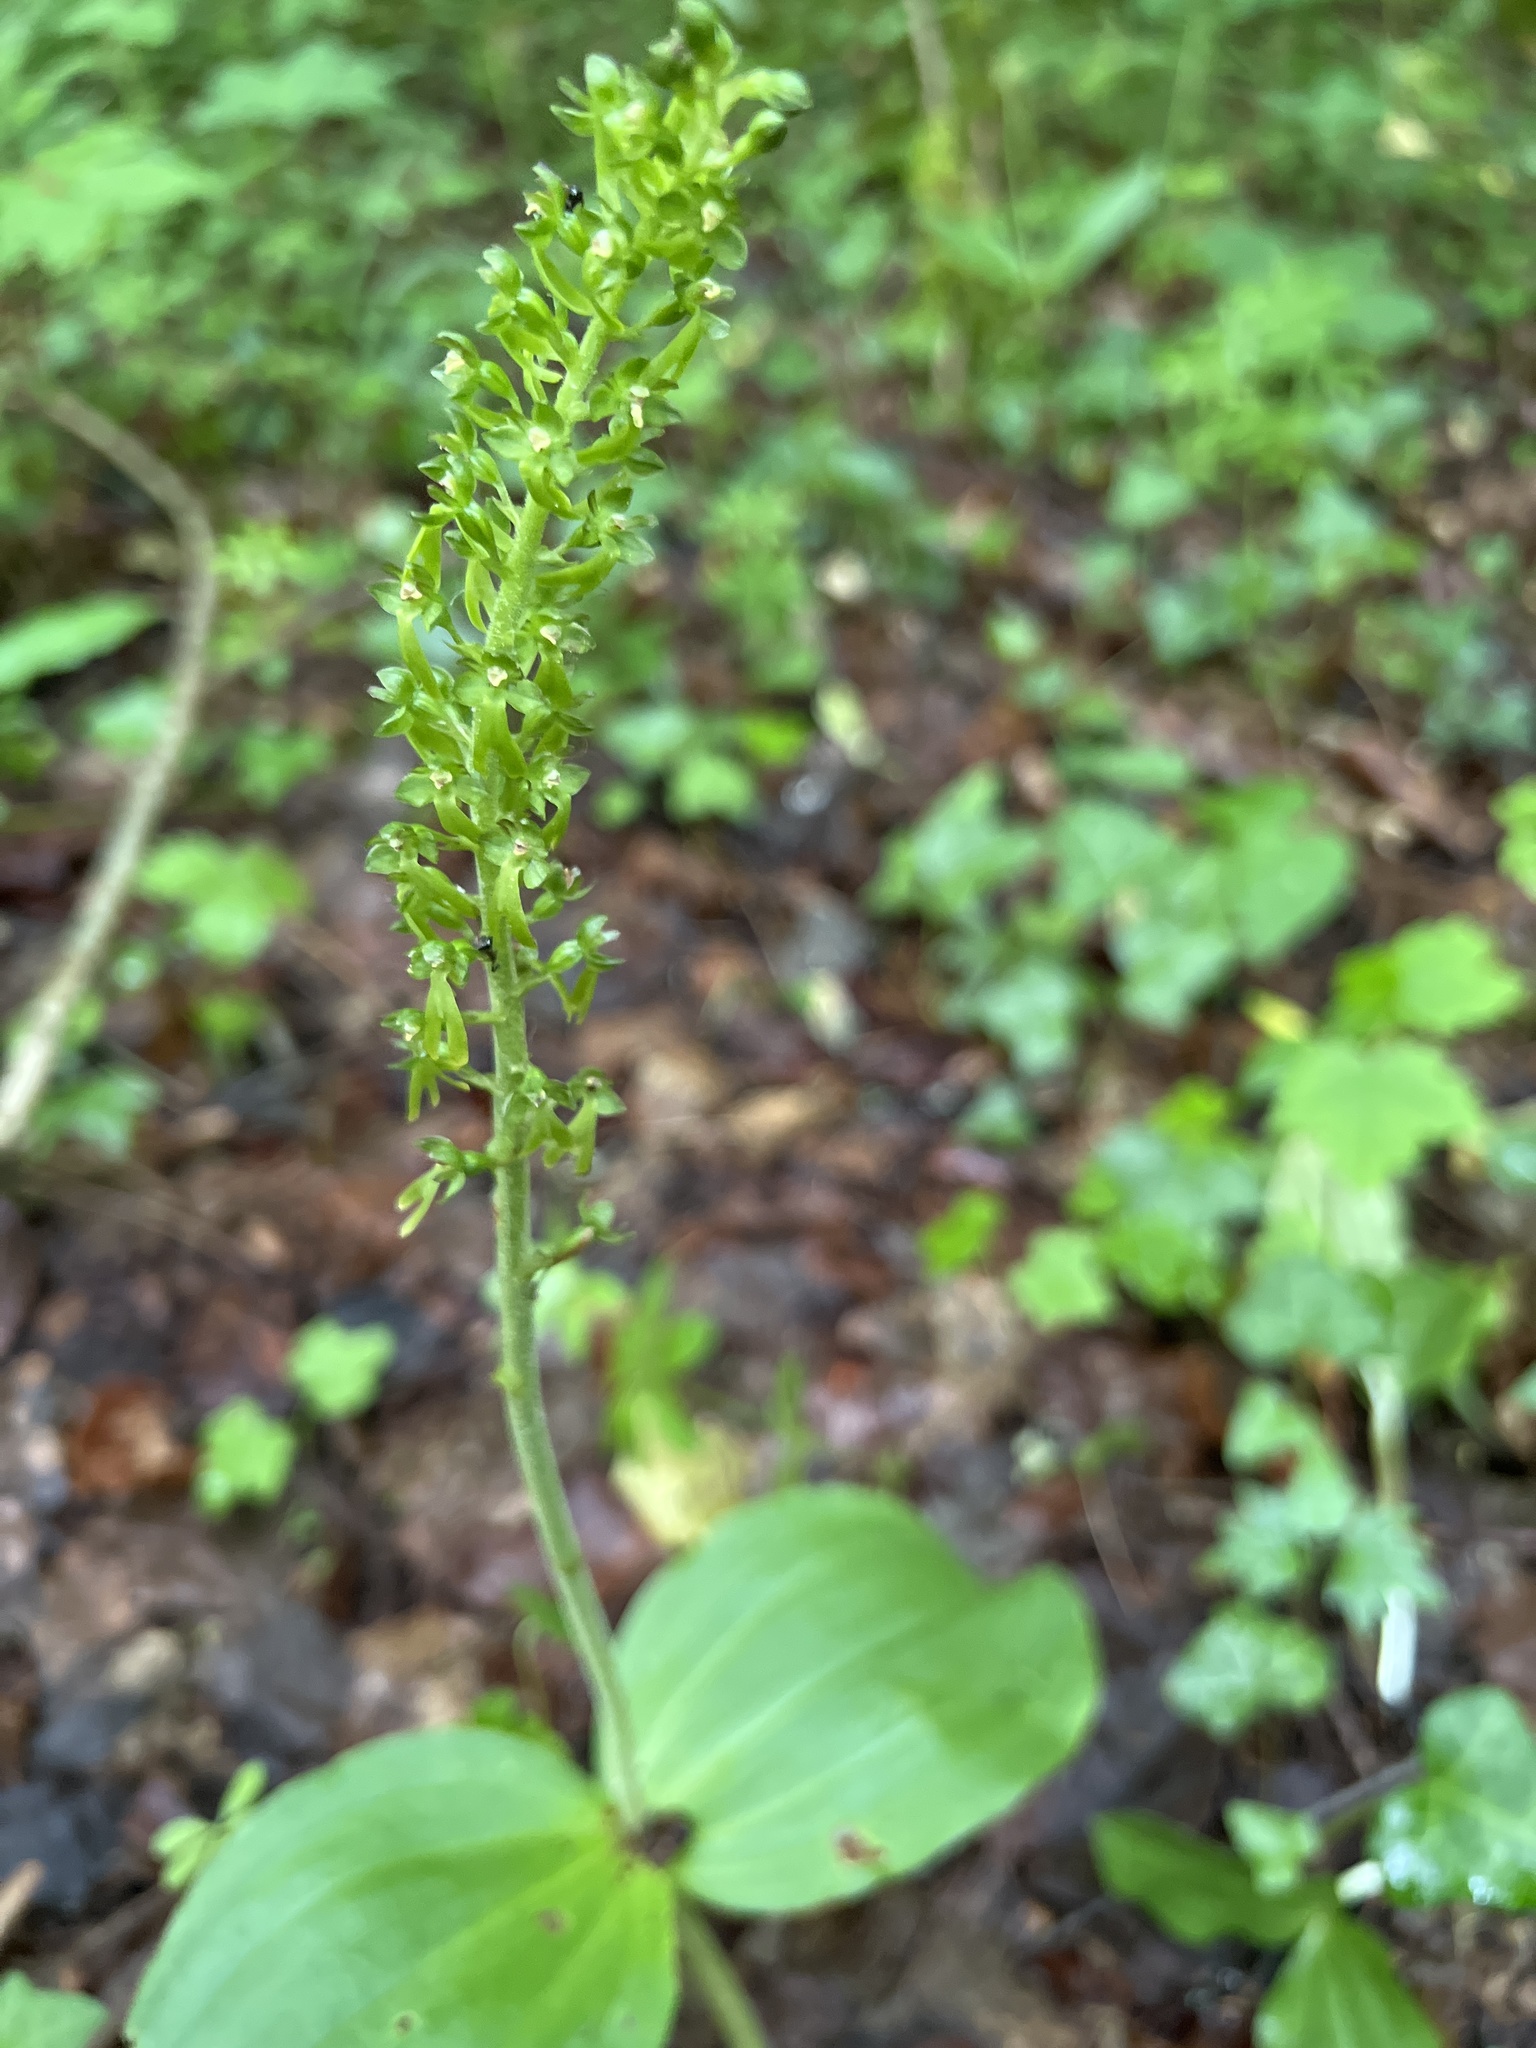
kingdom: Plantae
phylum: Tracheophyta
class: Liliopsida
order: Asparagales
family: Orchidaceae
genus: Neottia
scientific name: Neottia ovata
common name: Common twayblade
